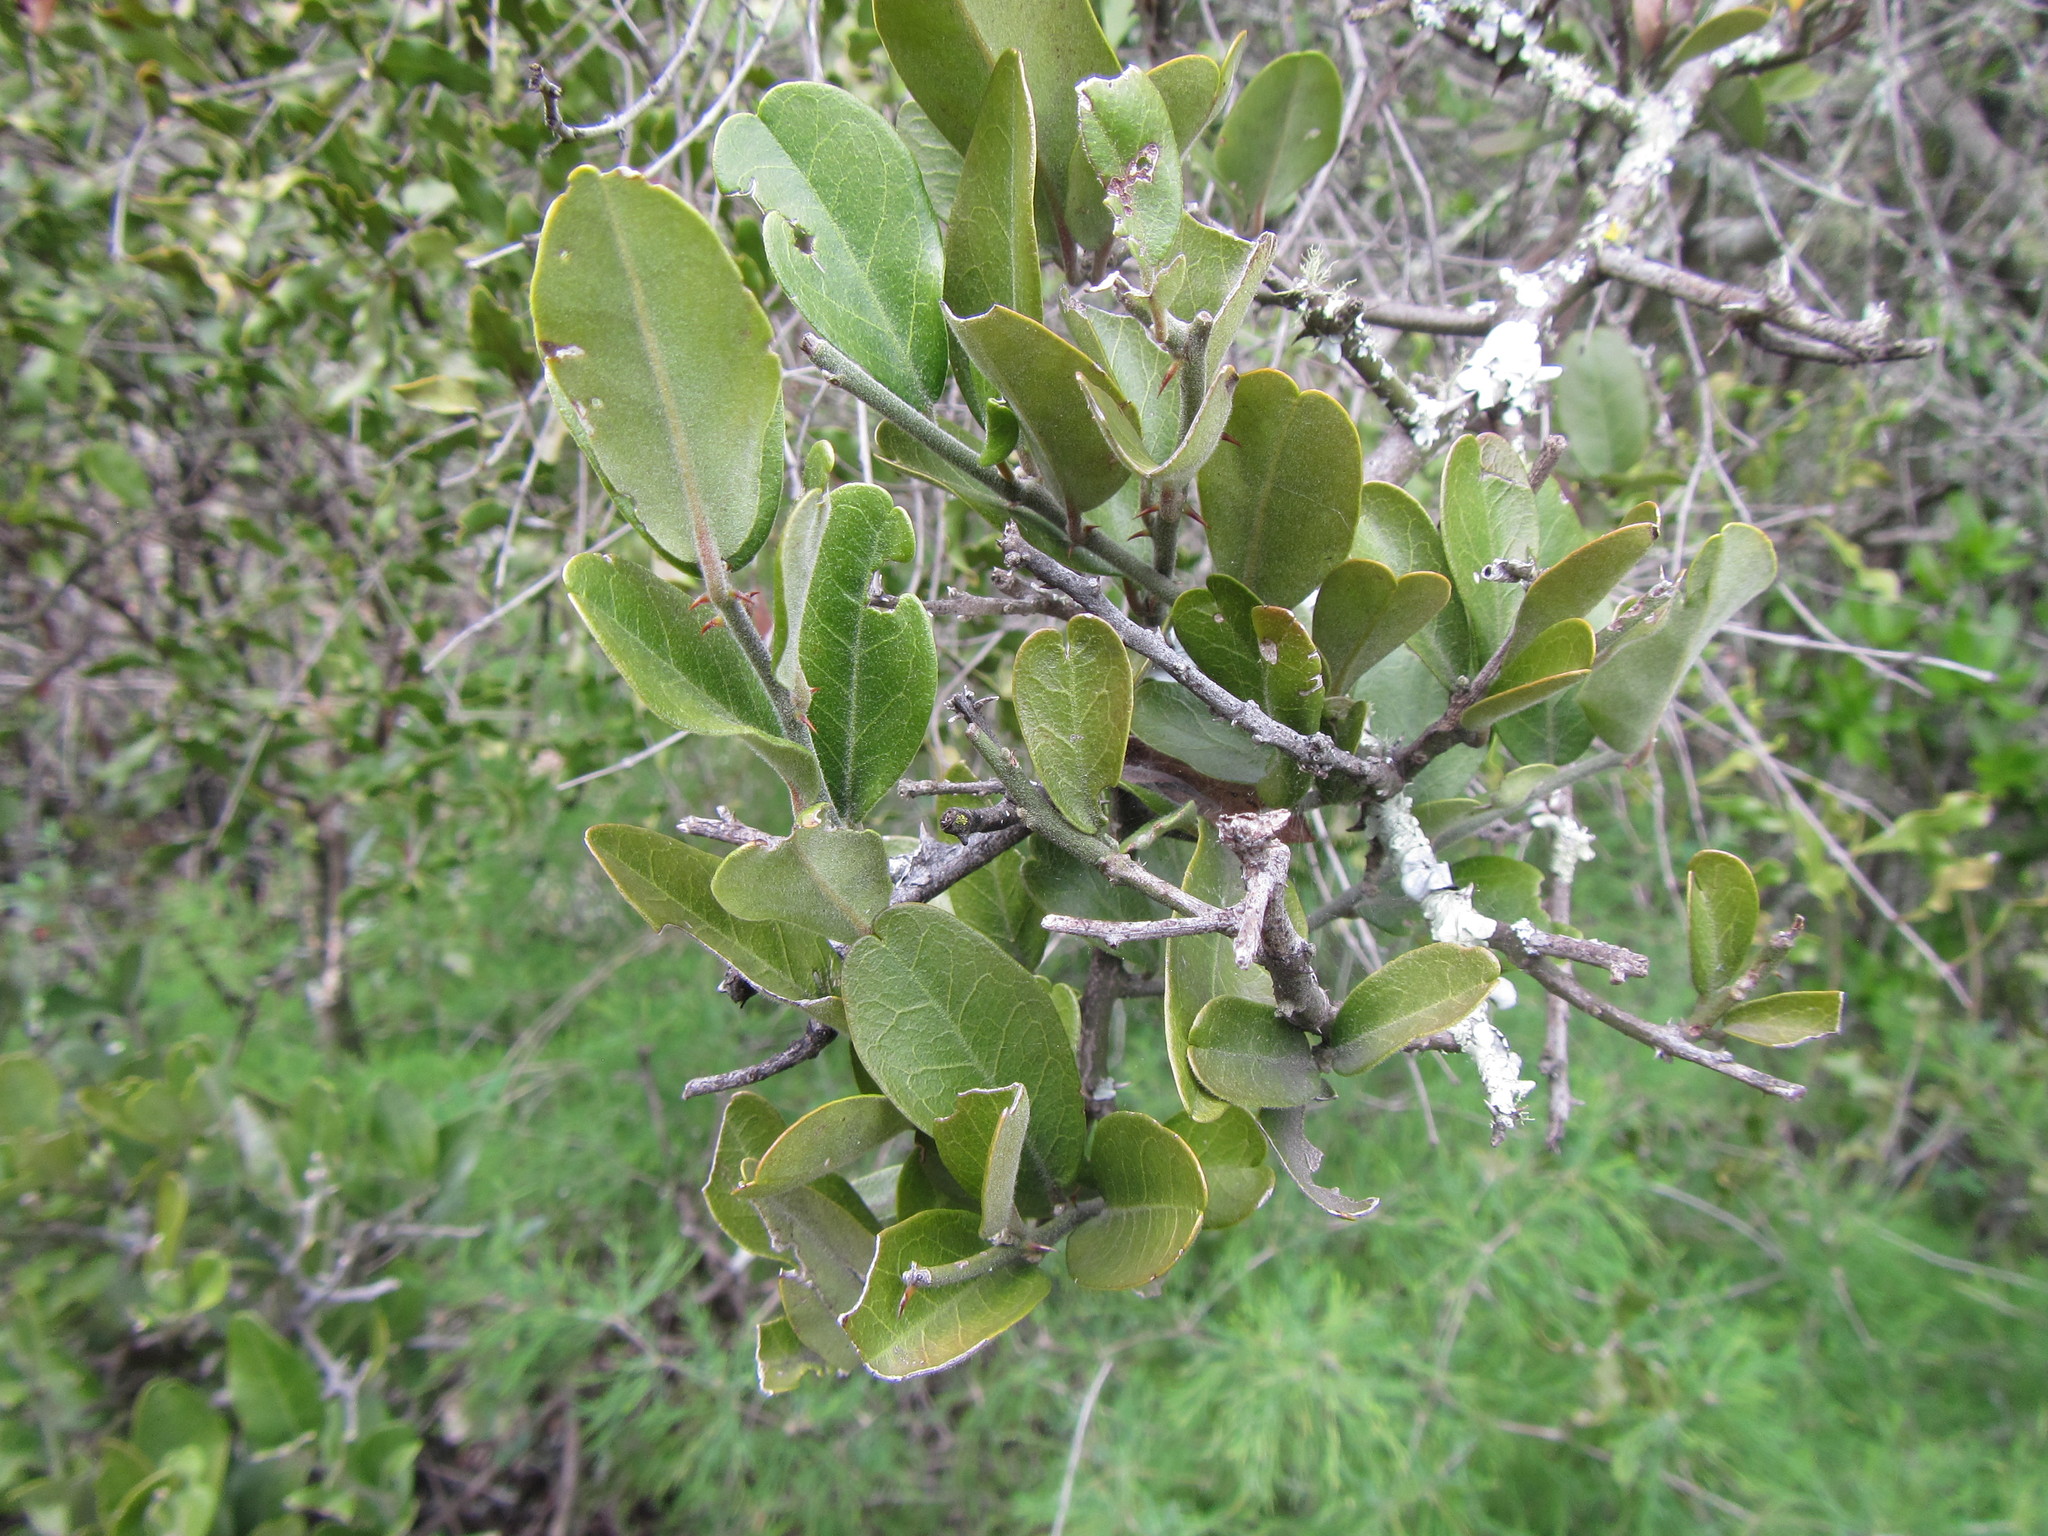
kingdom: Plantae
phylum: Tracheophyta
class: Magnoliopsida
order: Brassicales
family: Capparaceae
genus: Capparis
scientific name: Capparis sepiaria
